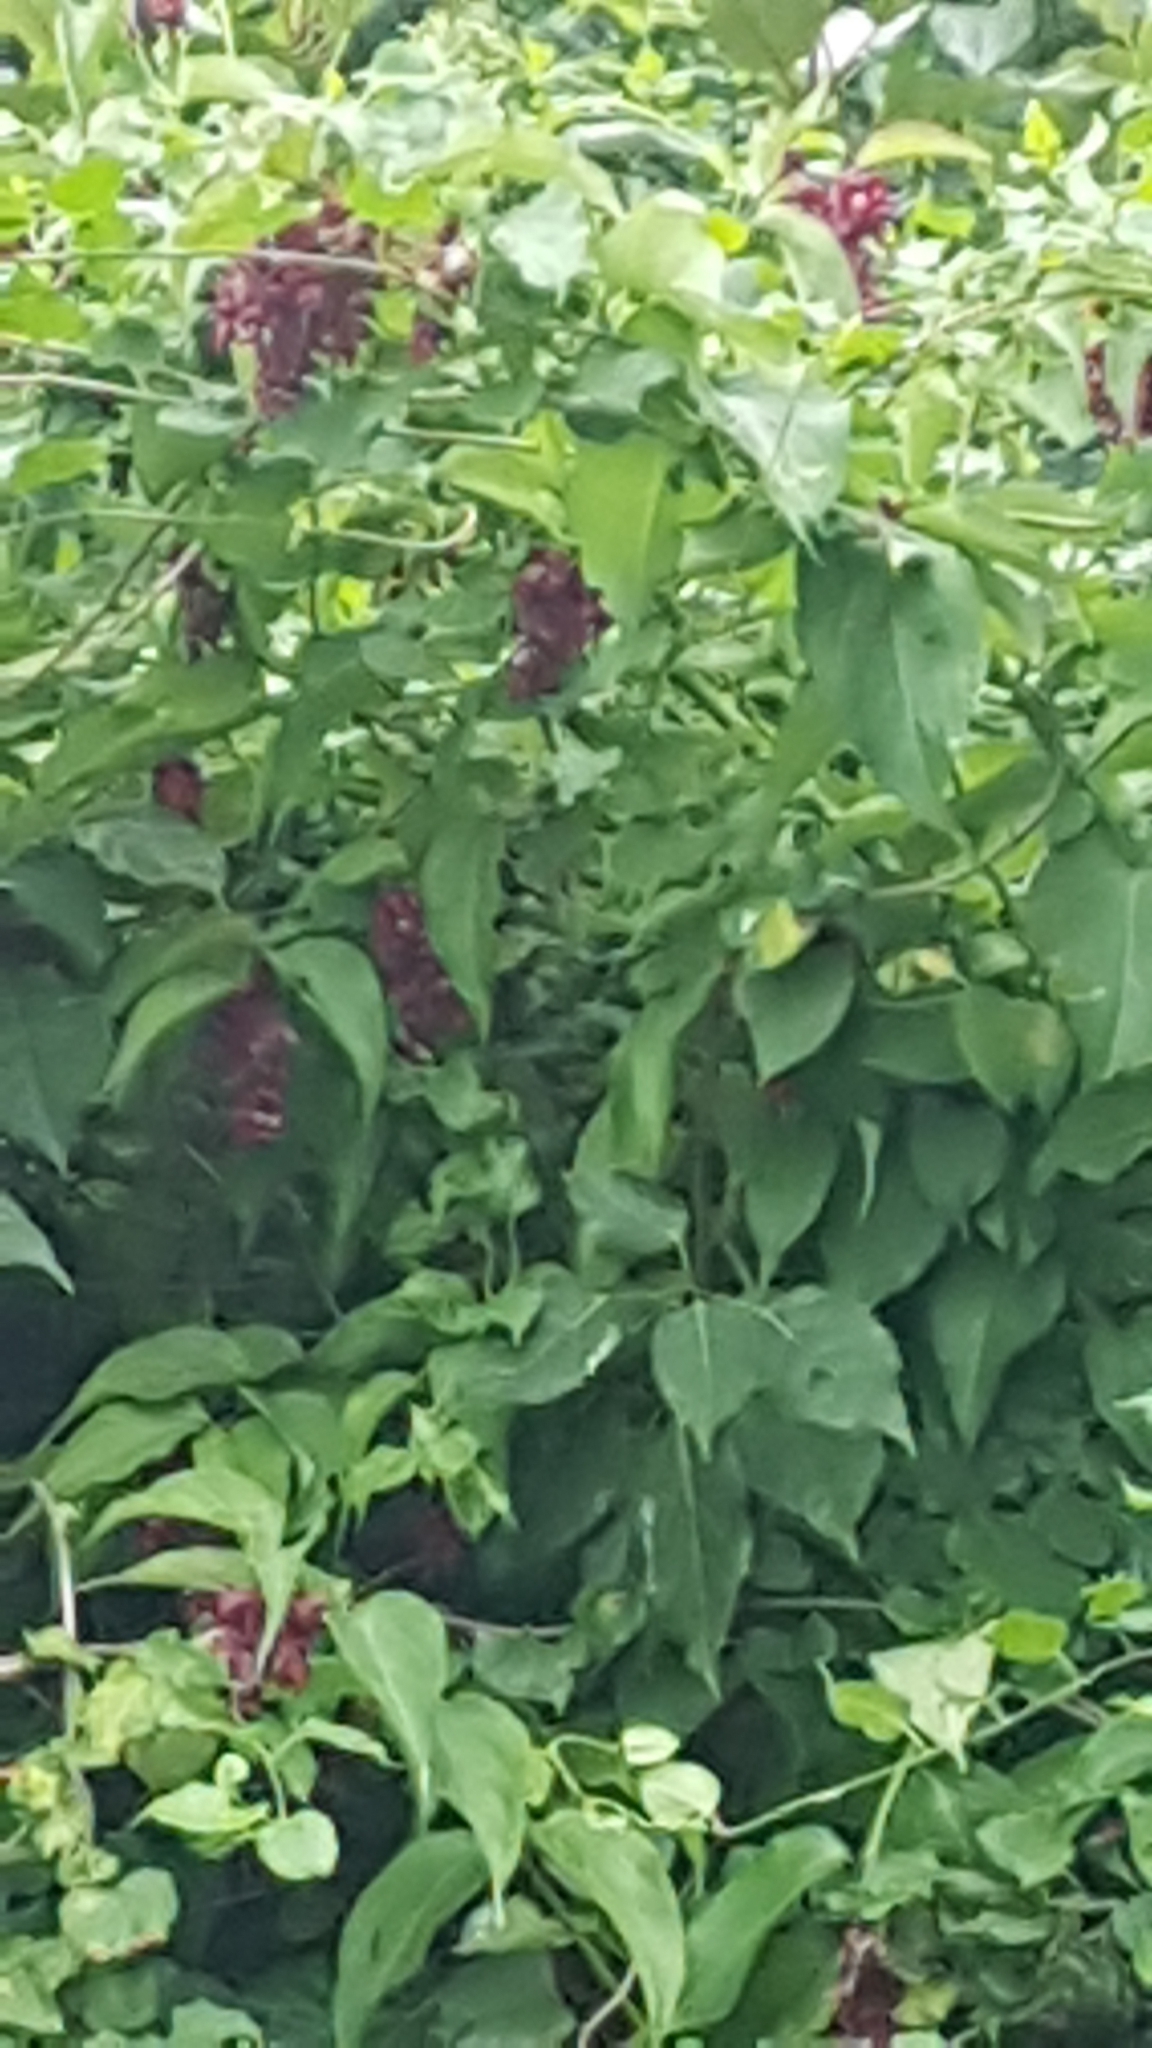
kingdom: Plantae
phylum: Tracheophyta
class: Magnoliopsida
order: Dipsacales
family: Caprifoliaceae
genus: Leycesteria
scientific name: Leycesteria formosa
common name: Himalayan honeysuckle
